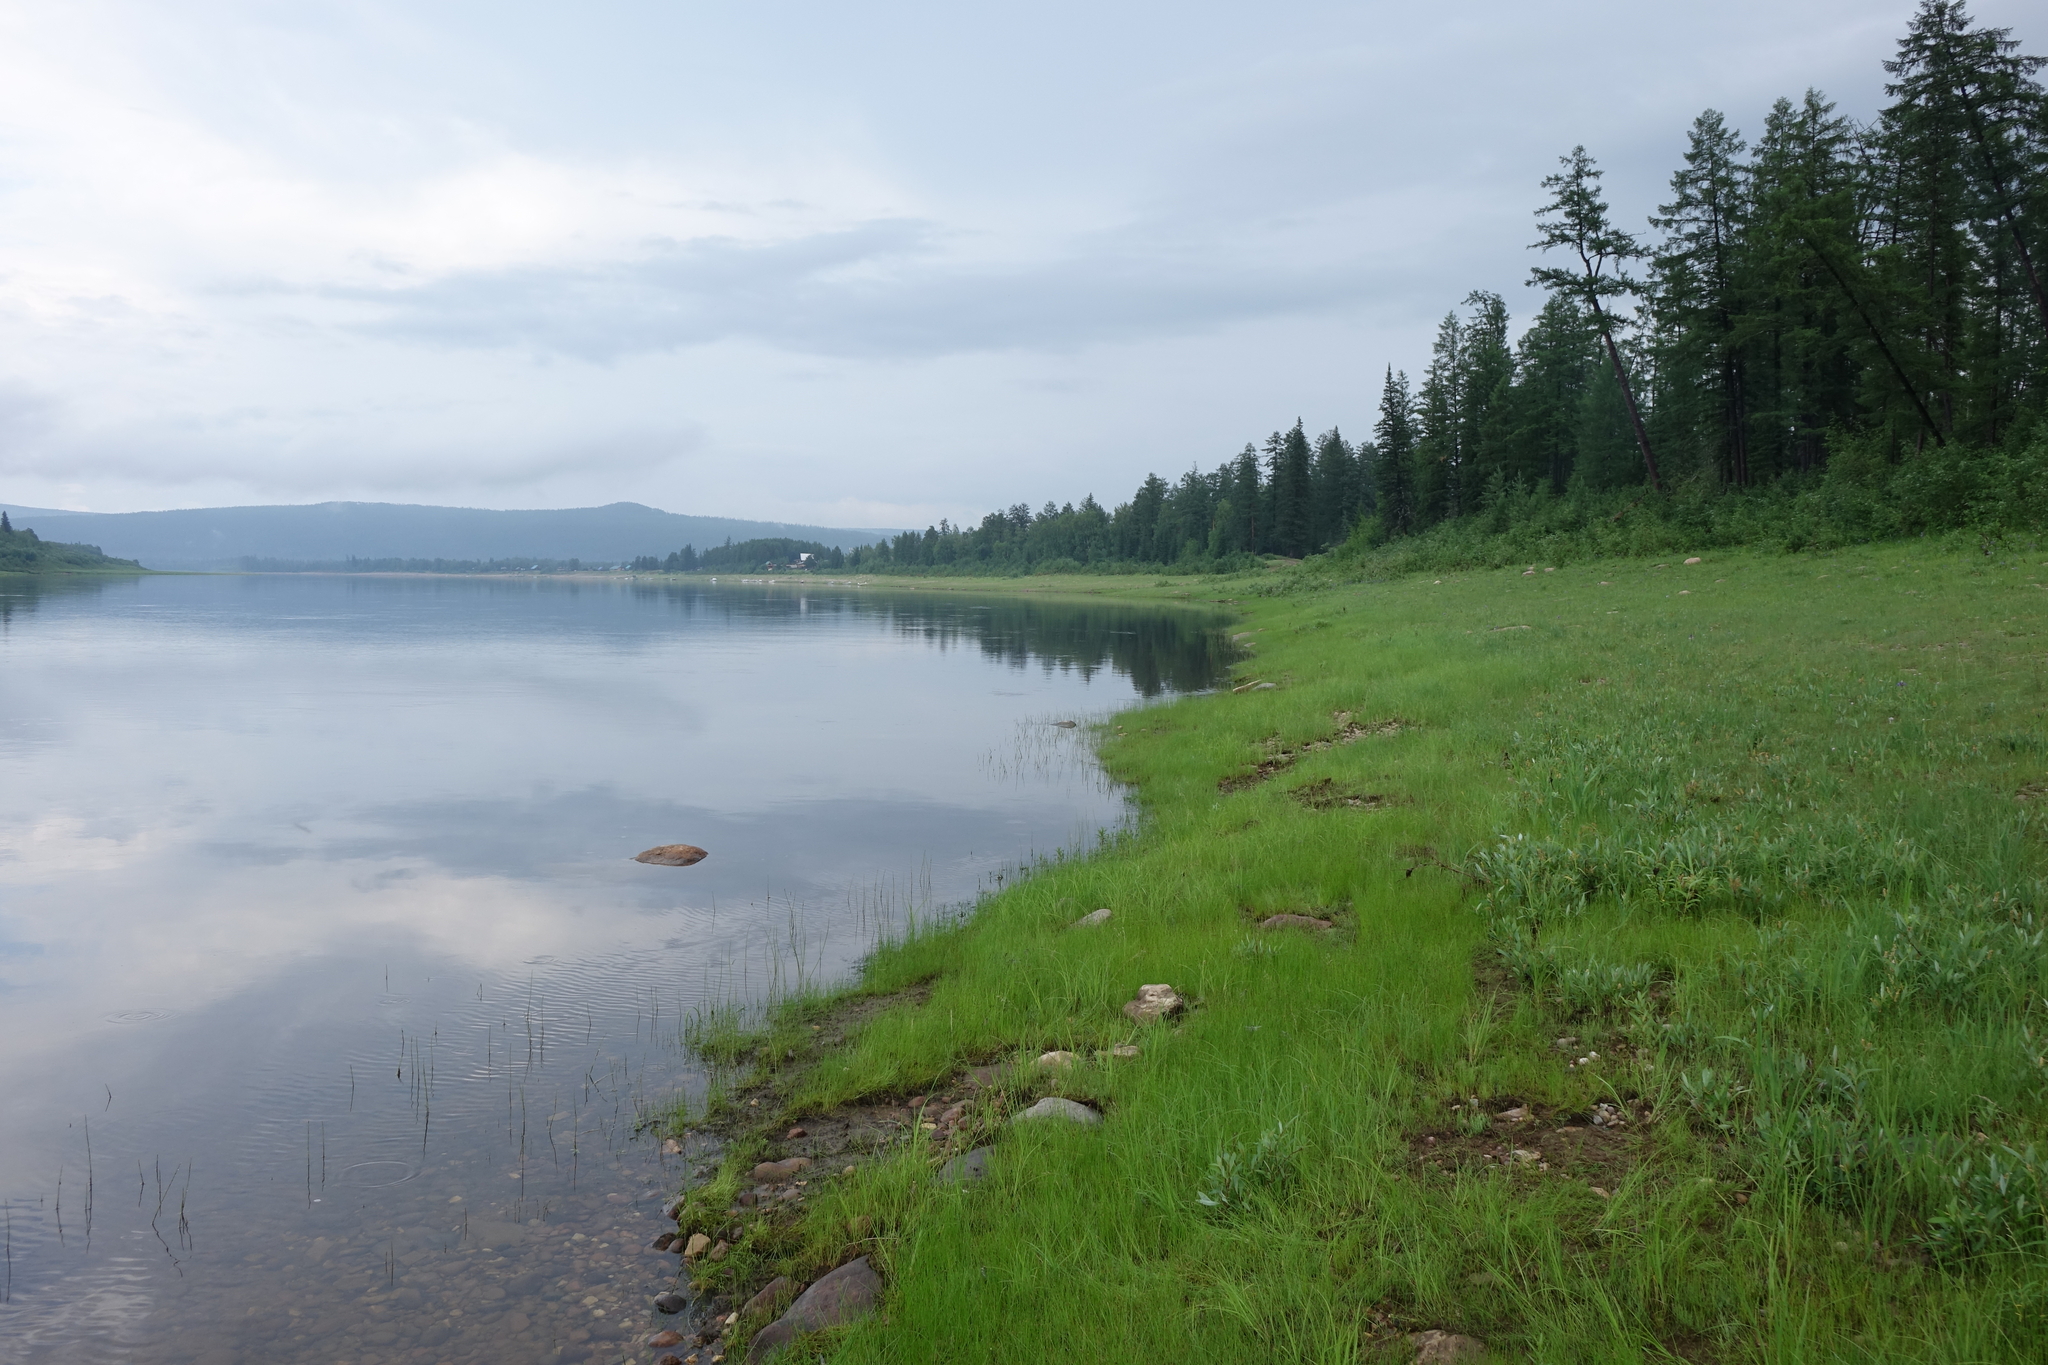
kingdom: Plantae
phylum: Tracheophyta
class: Pinopsida
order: Pinales
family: Pinaceae
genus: Larix
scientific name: Larix gmelinii
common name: Dahurian larch
